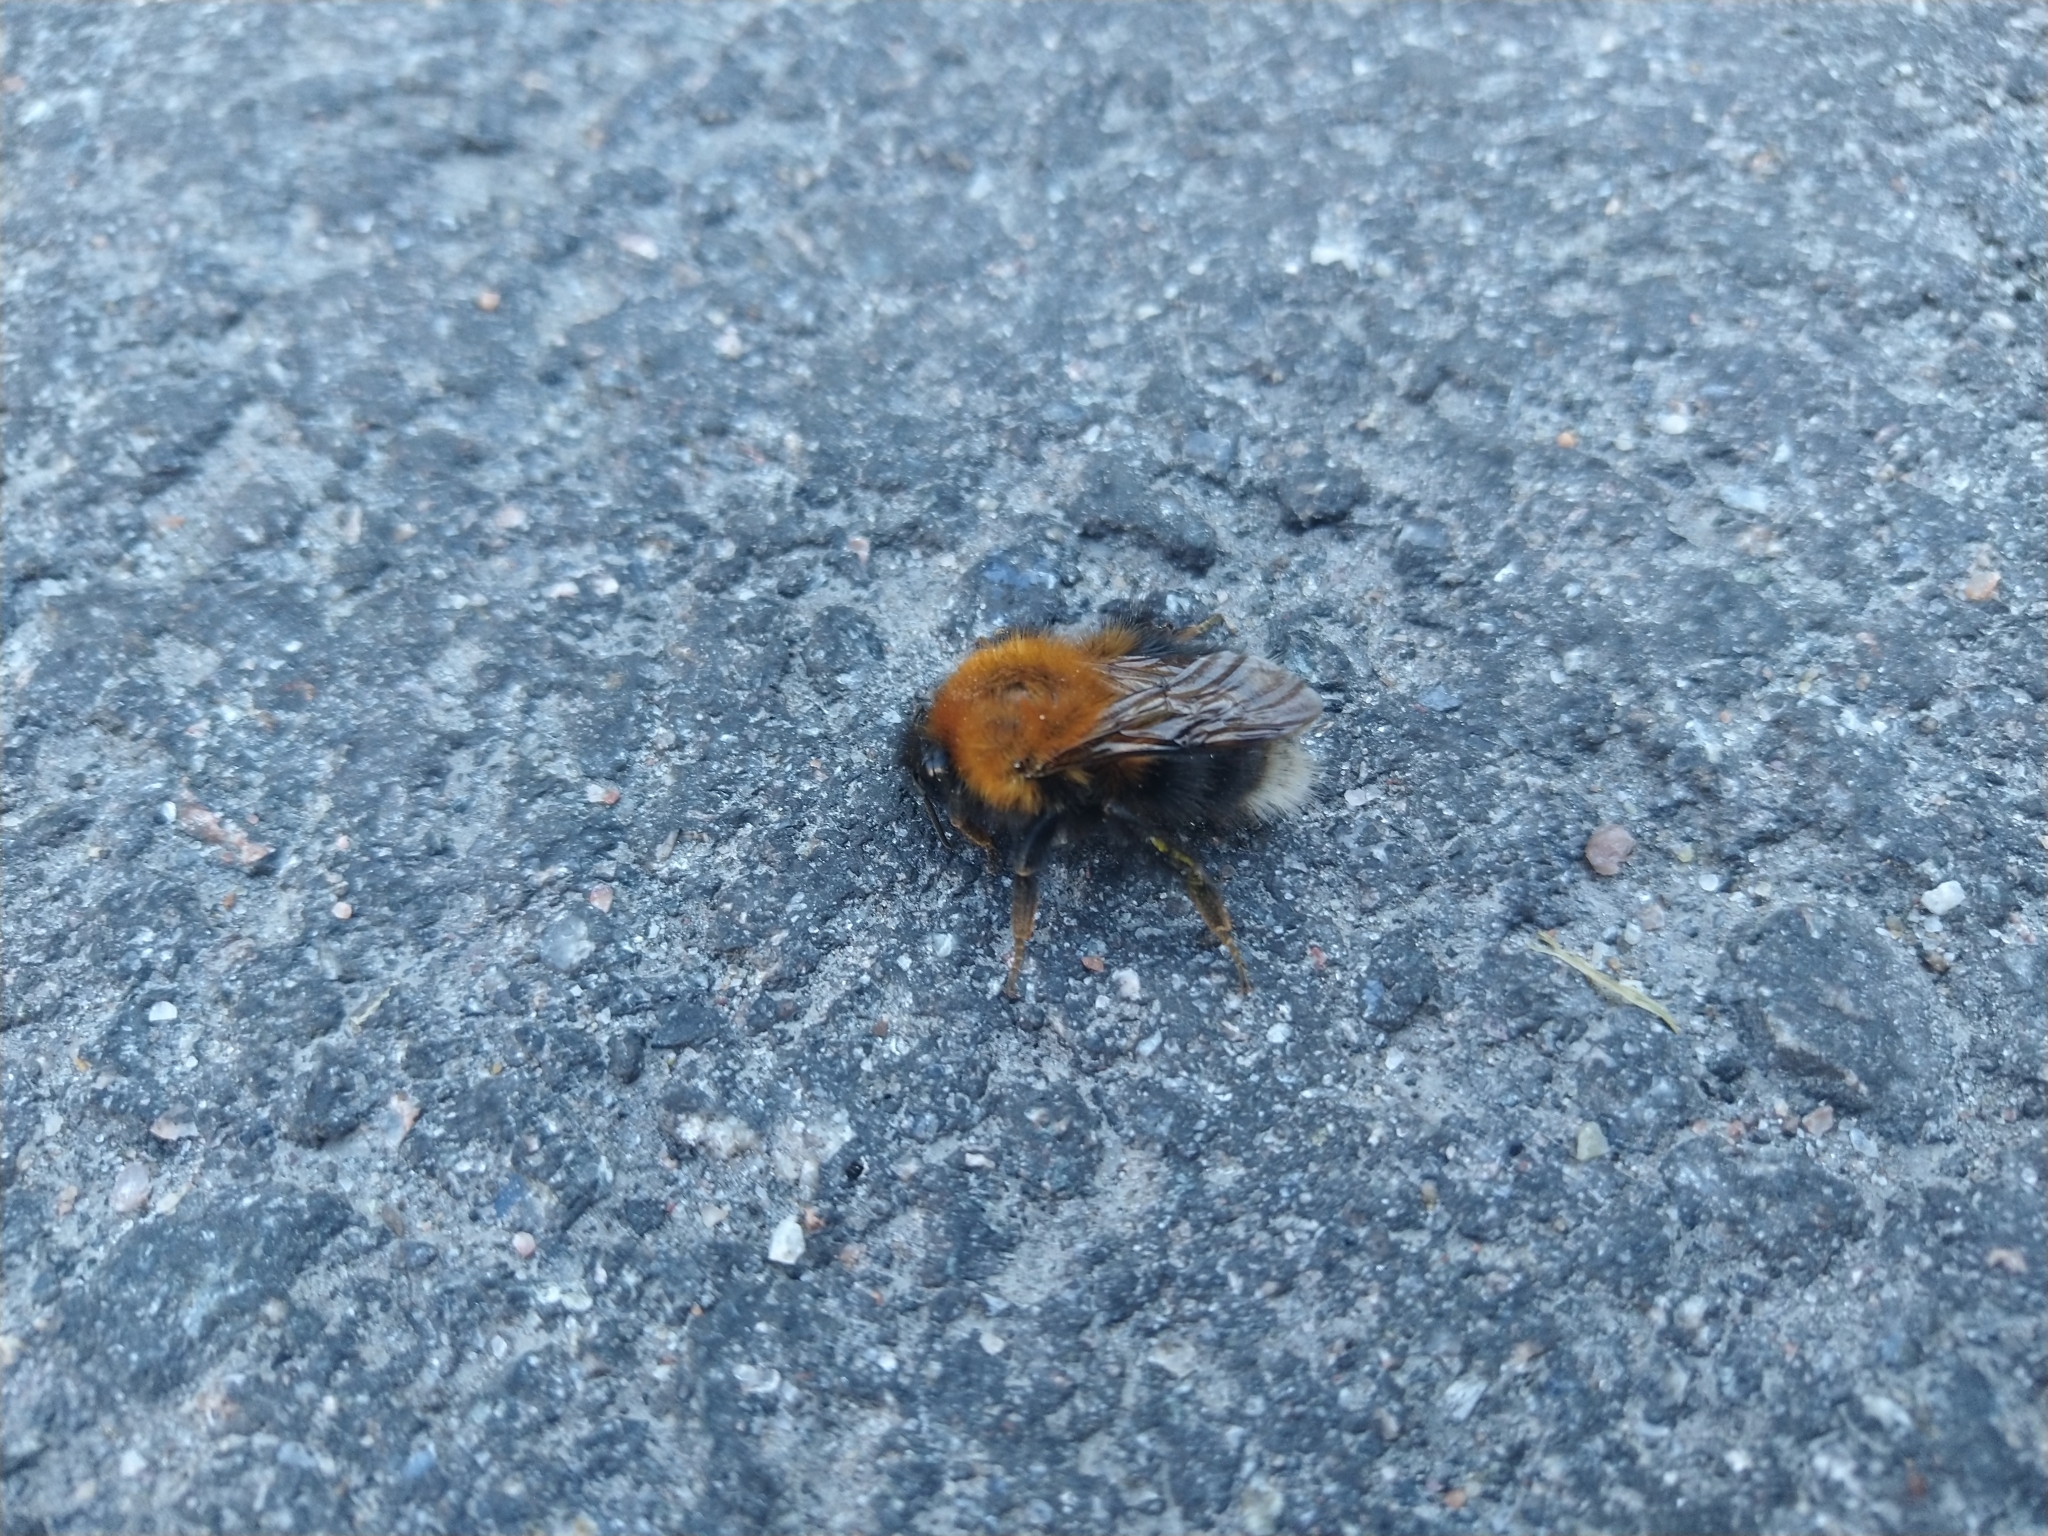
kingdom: Animalia
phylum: Arthropoda
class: Insecta
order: Hymenoptera
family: Apidae
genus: Bombus
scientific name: Bombus hypnorum
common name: New garden bumblebee
